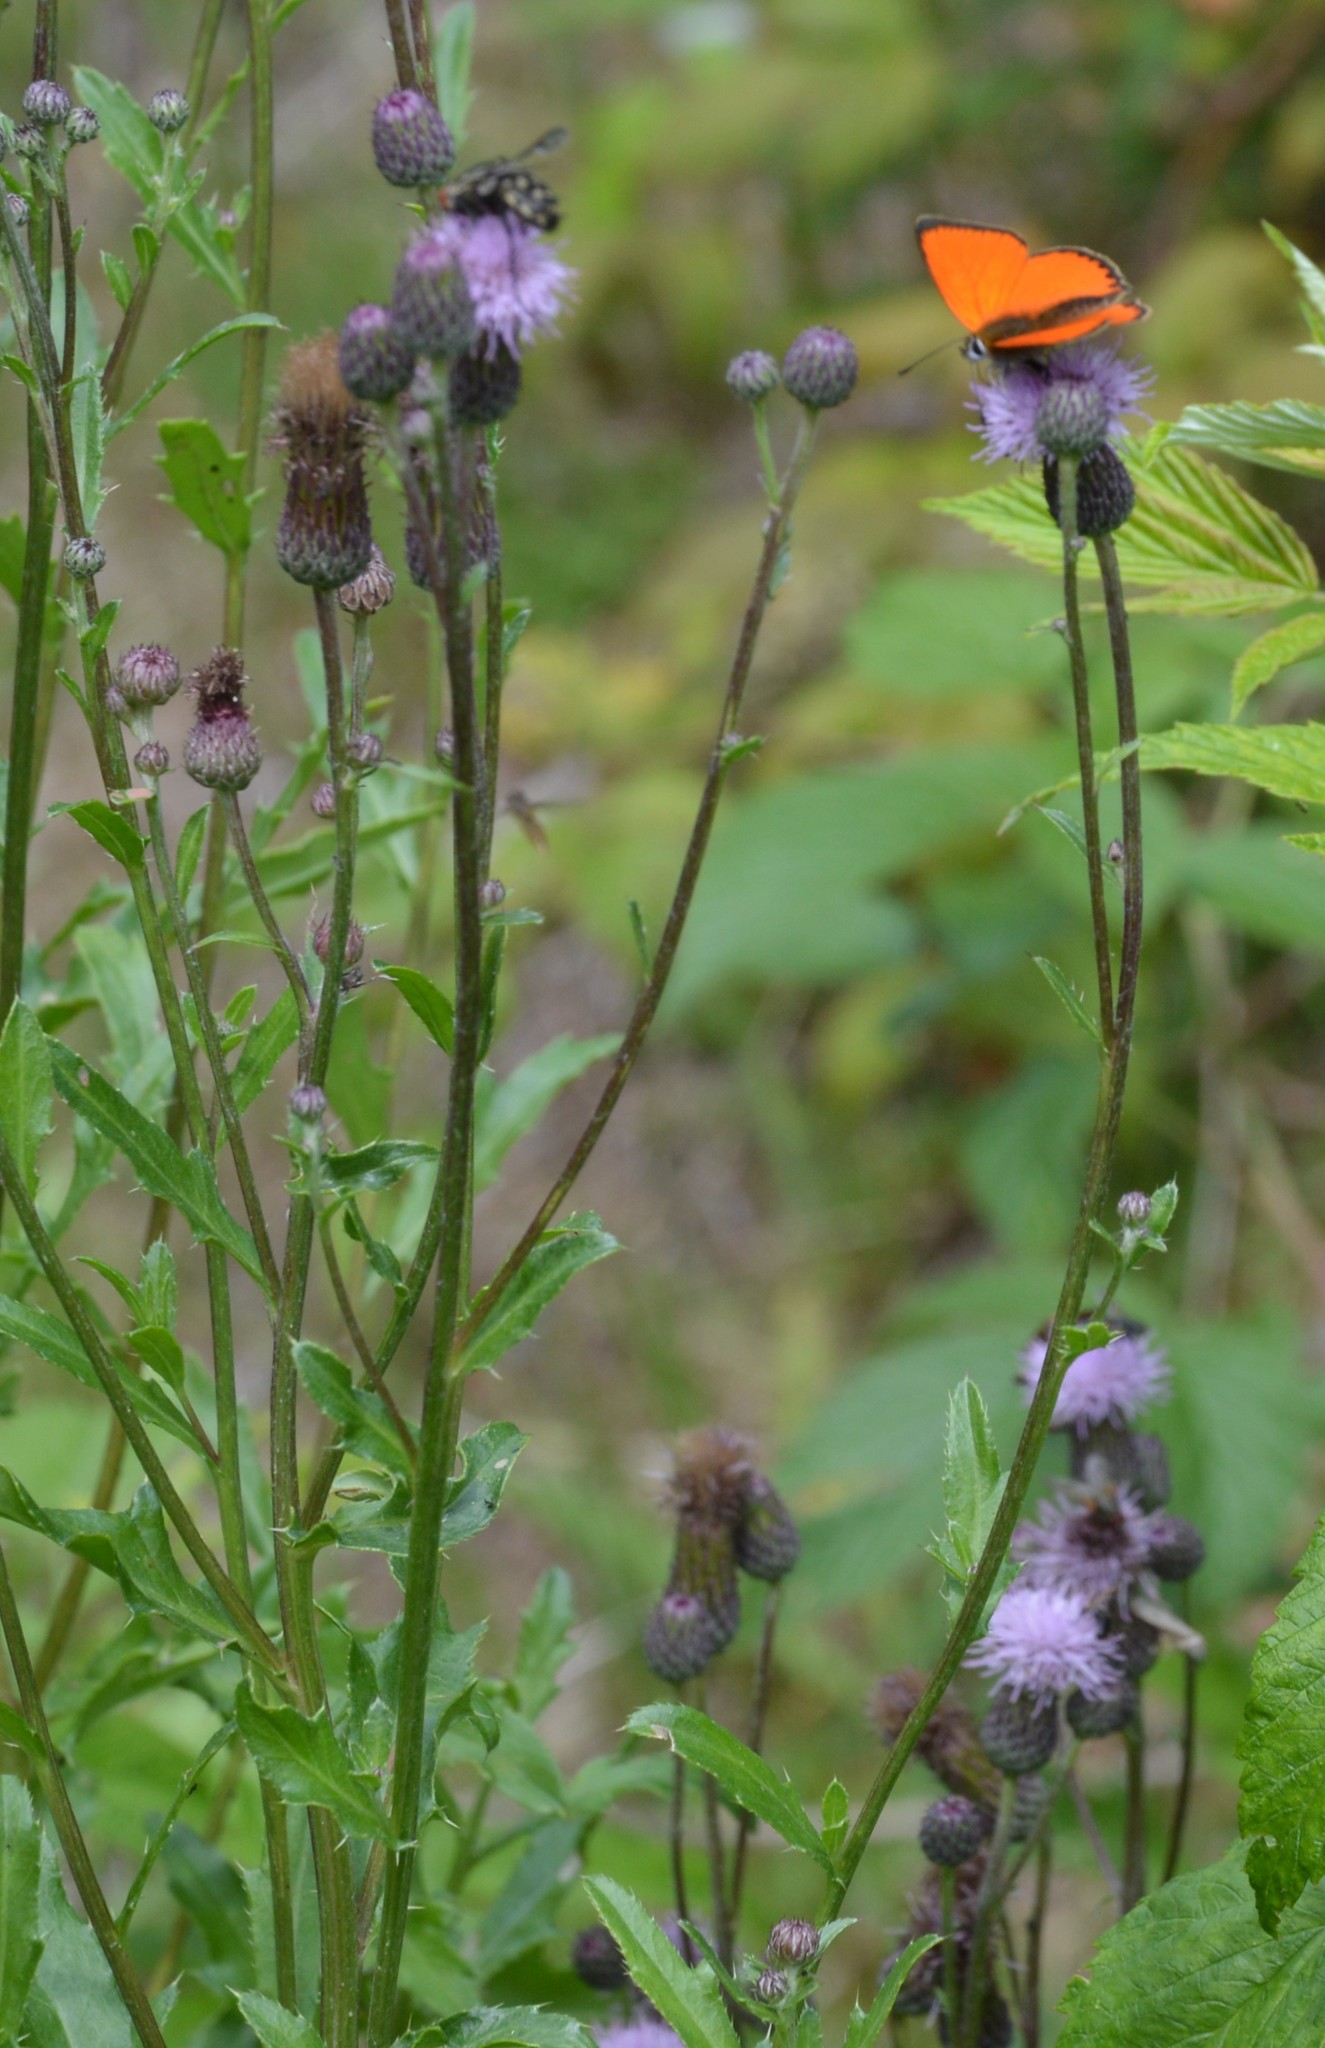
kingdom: Plantae
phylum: Tracheophyta
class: Magnoliopsida
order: Asterales
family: Asteraceae
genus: Cirsium
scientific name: Cirsium arvense
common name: Creeping thistle
